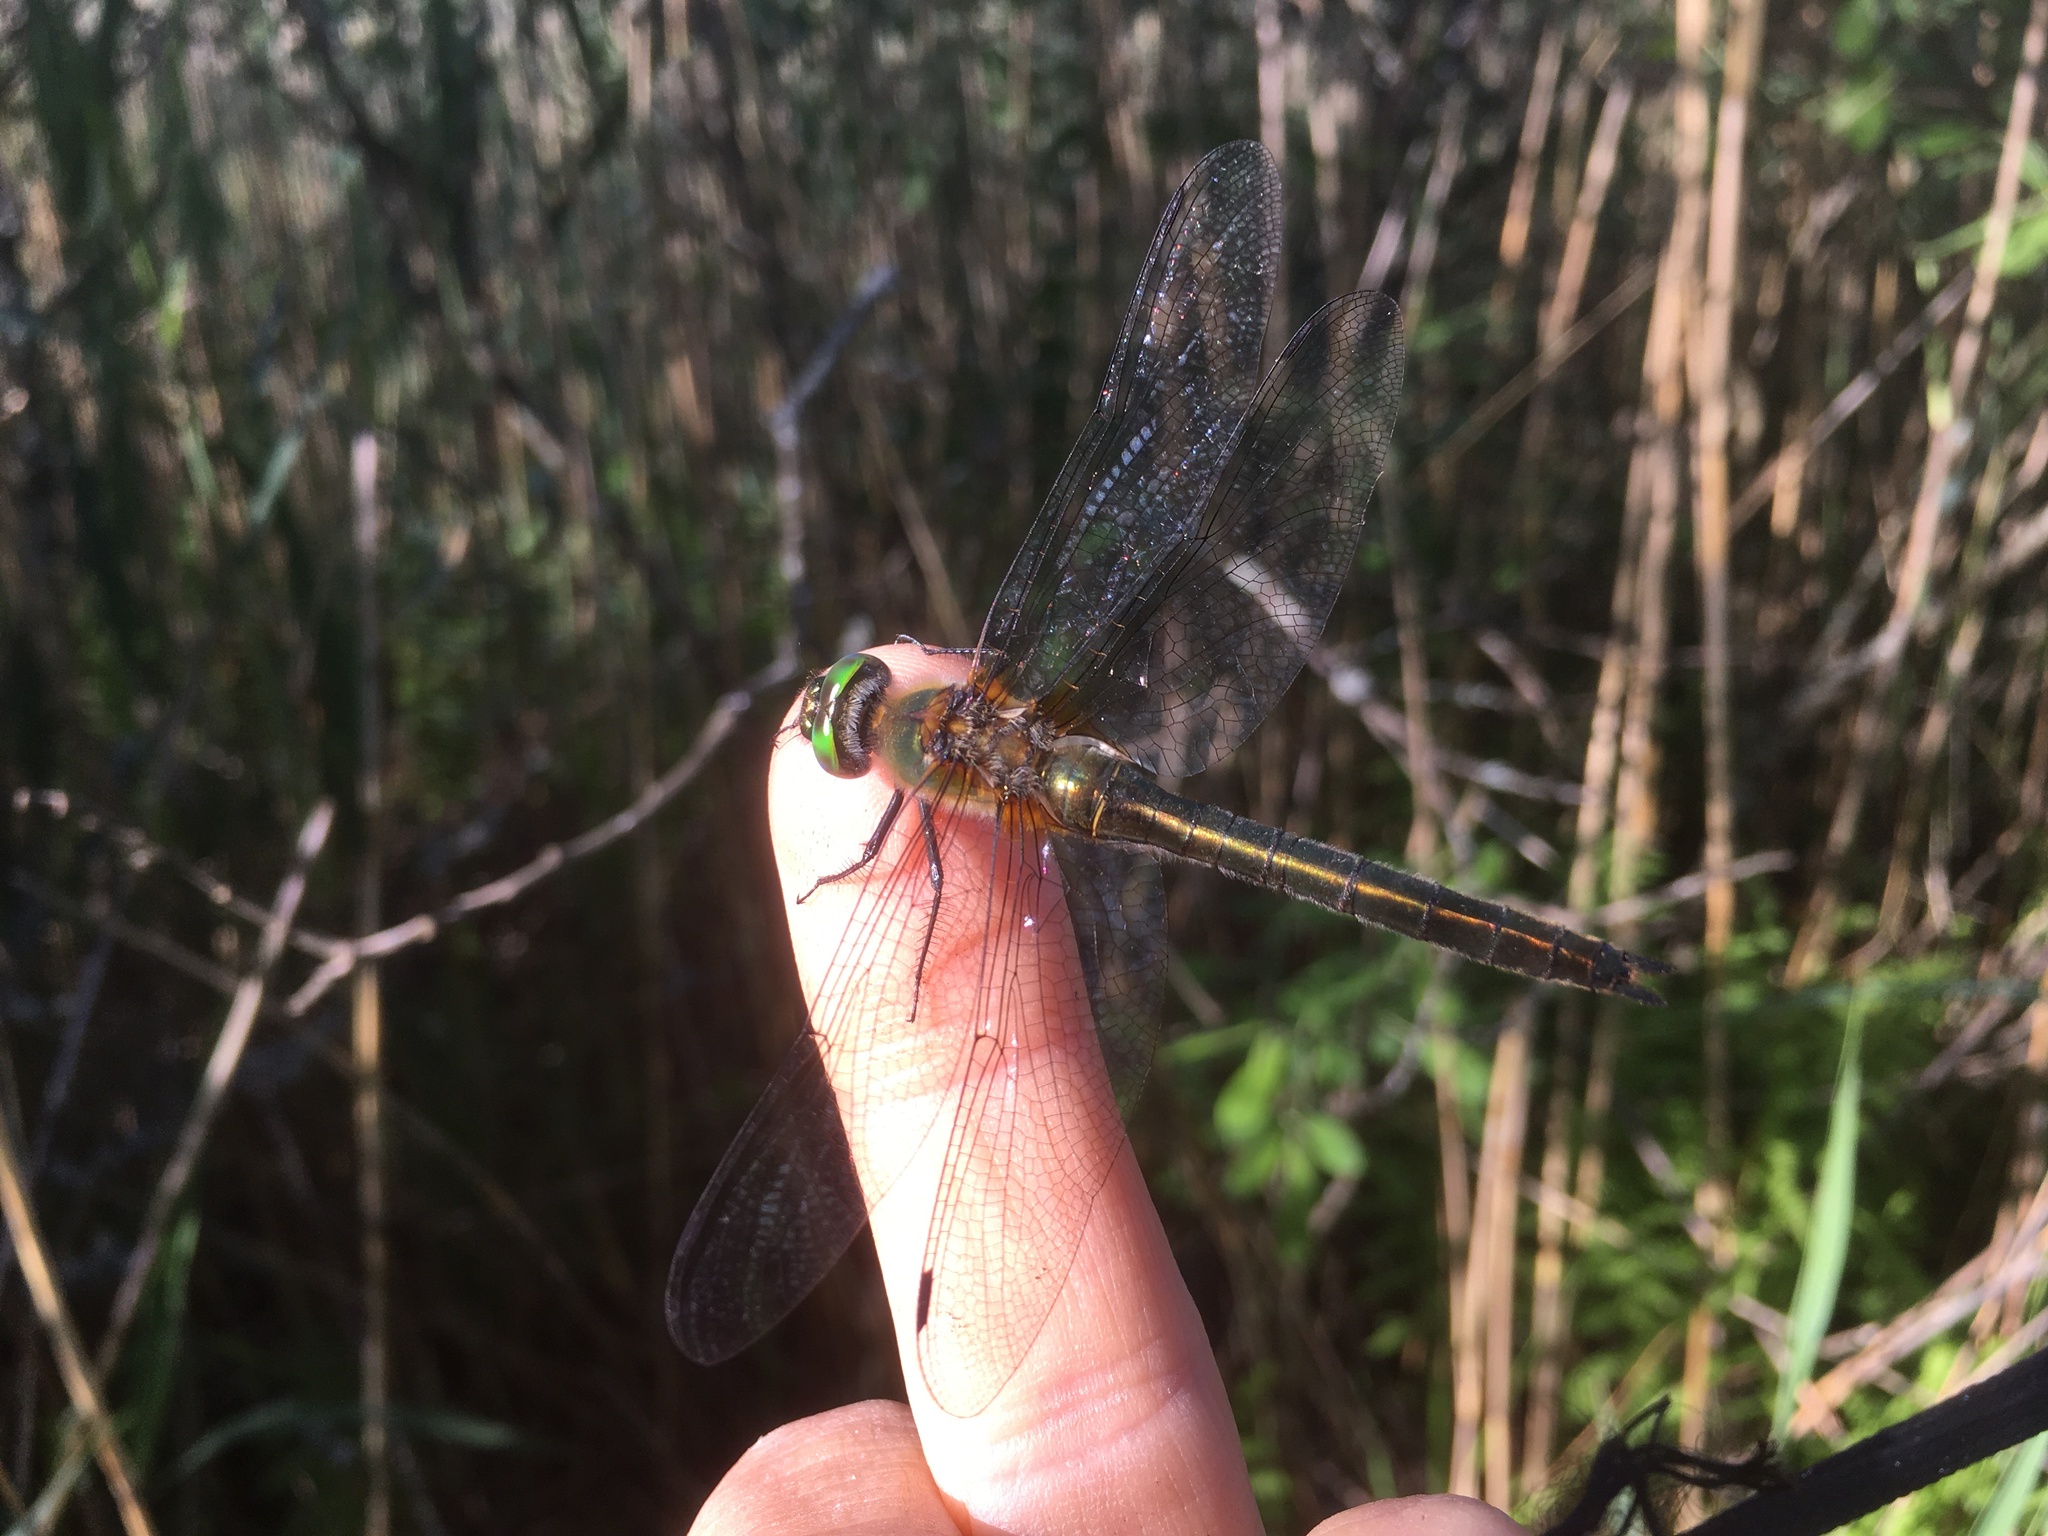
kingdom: Animalia
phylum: Arthropoda
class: Insecta
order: Odonata
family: Corduliidae
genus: Cordulia
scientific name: Cordulia aenea
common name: Downy emerald
